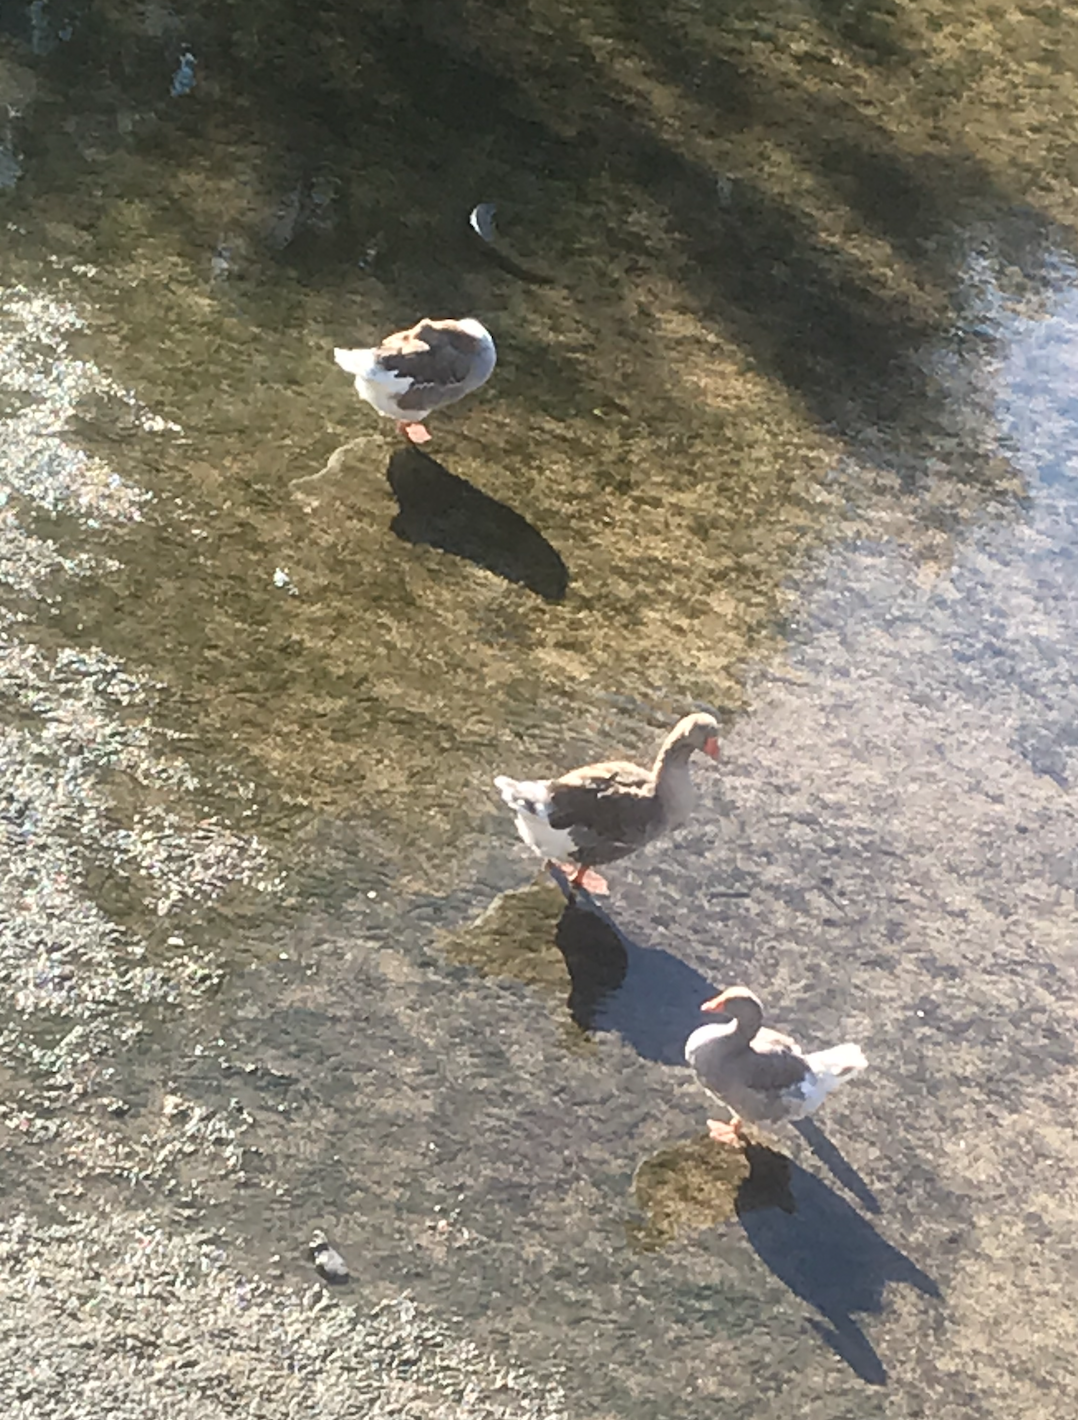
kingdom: Animalia
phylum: Chordata
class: Aves
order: Anseriformes
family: Anatidae
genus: Anser
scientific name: Anser anser
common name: Greylag goose
